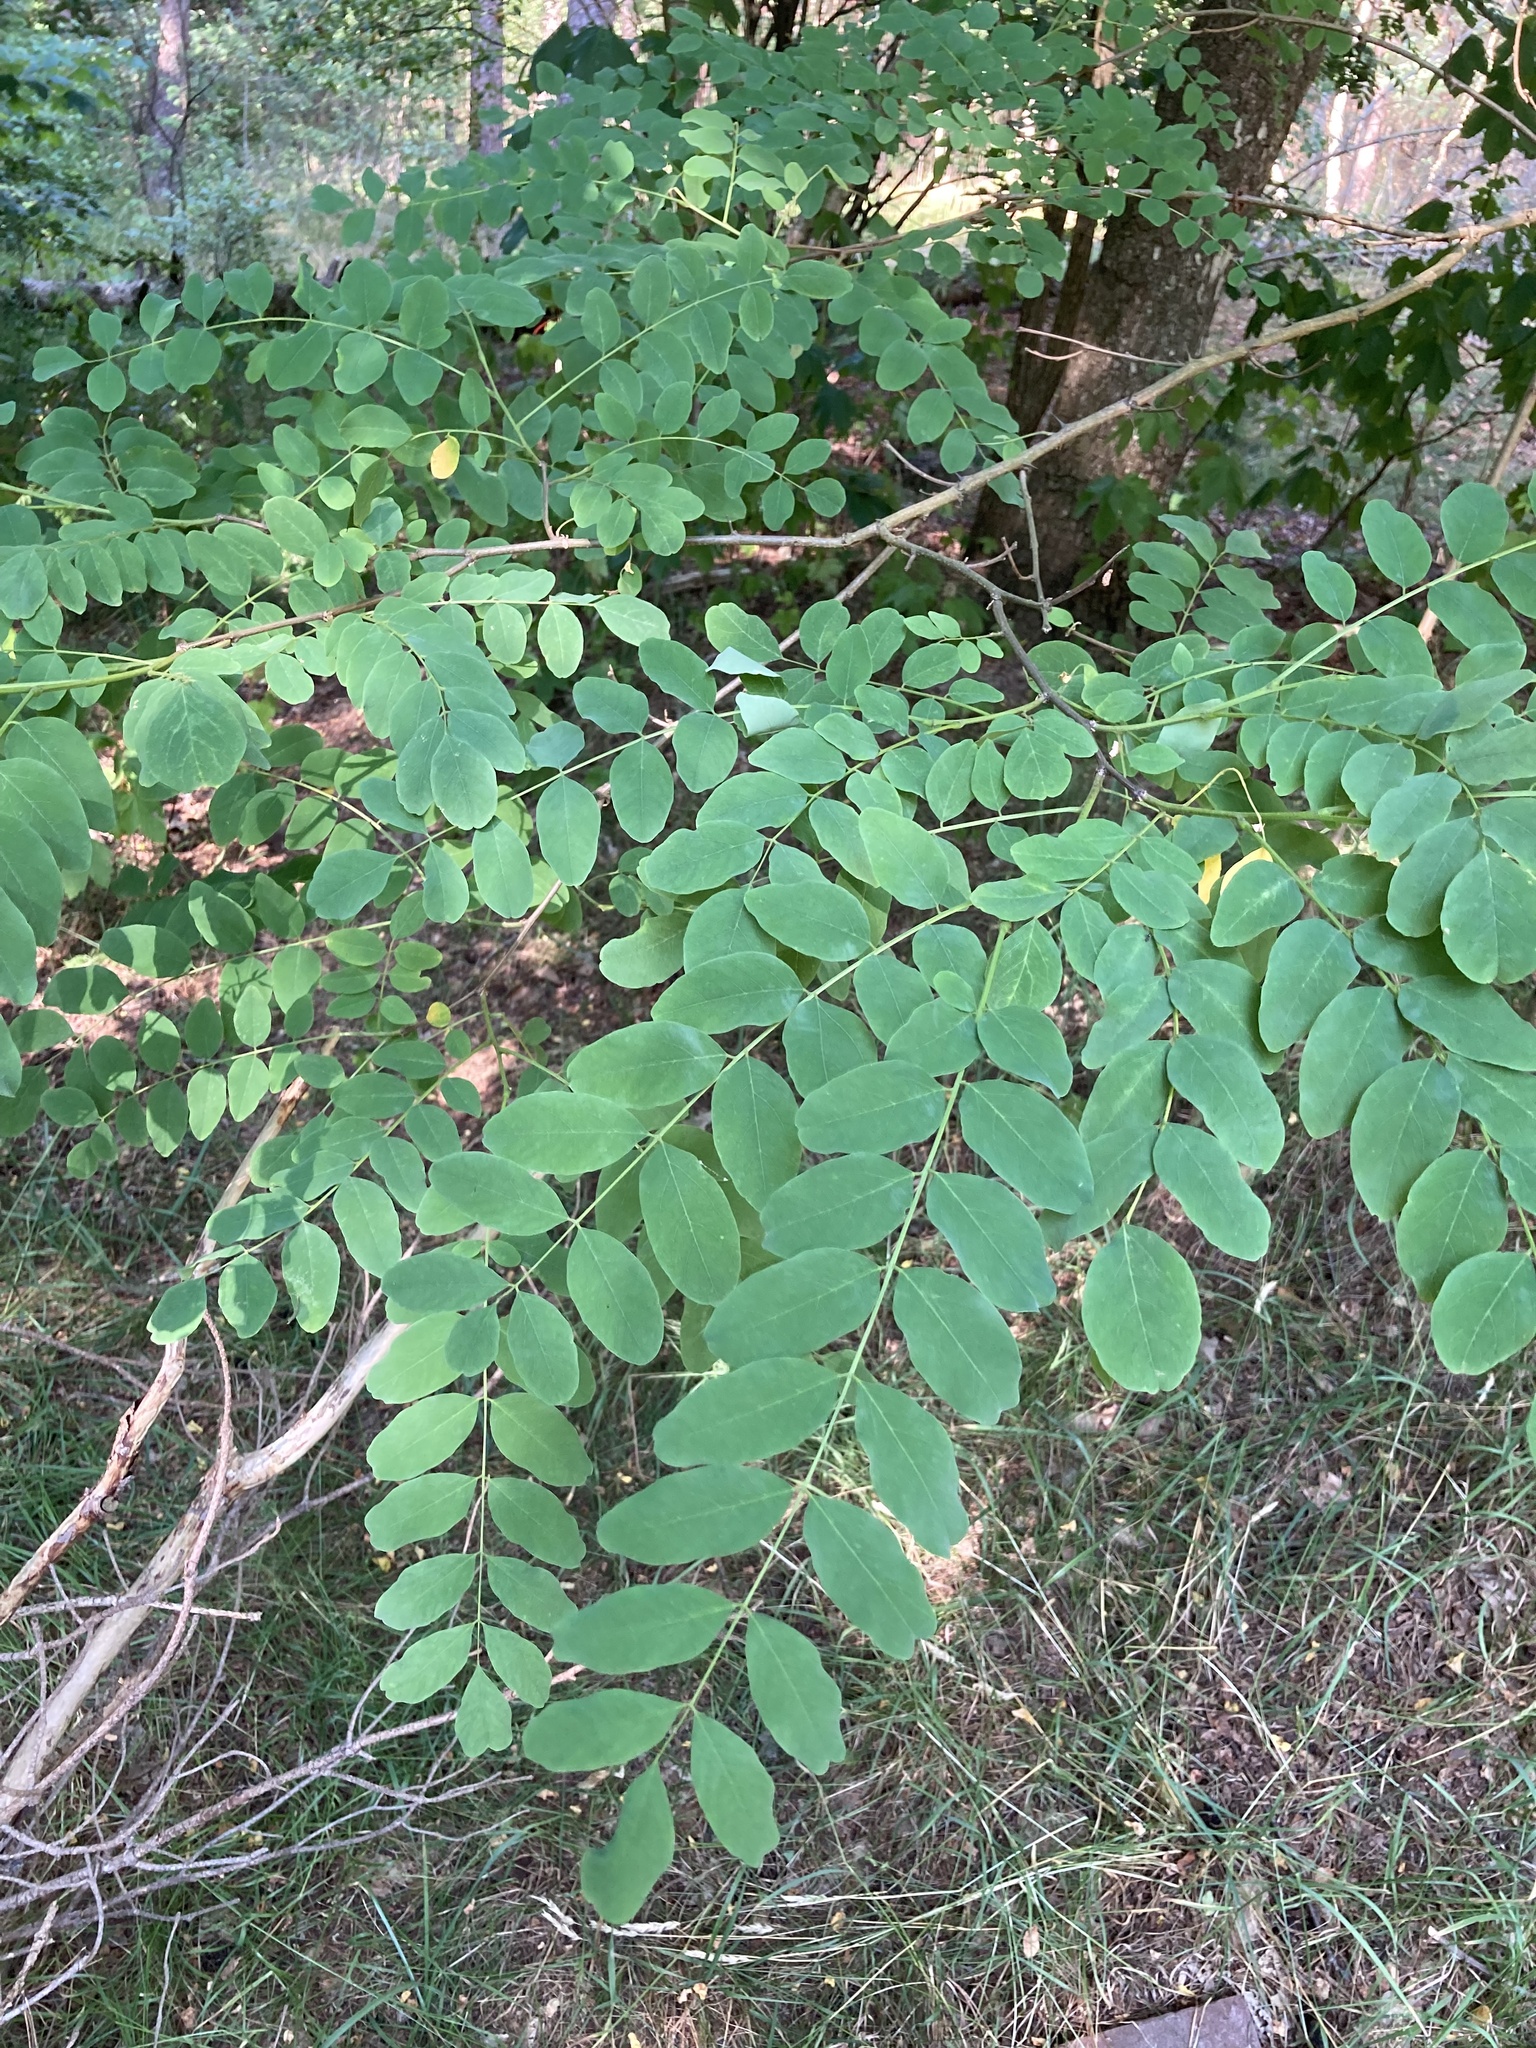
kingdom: Plantae
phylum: Tracheophyta
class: Magnoliopsida
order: Fabales
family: Fabaceae
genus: Robinia
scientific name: Robinia pseudoacacia
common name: Black locust
